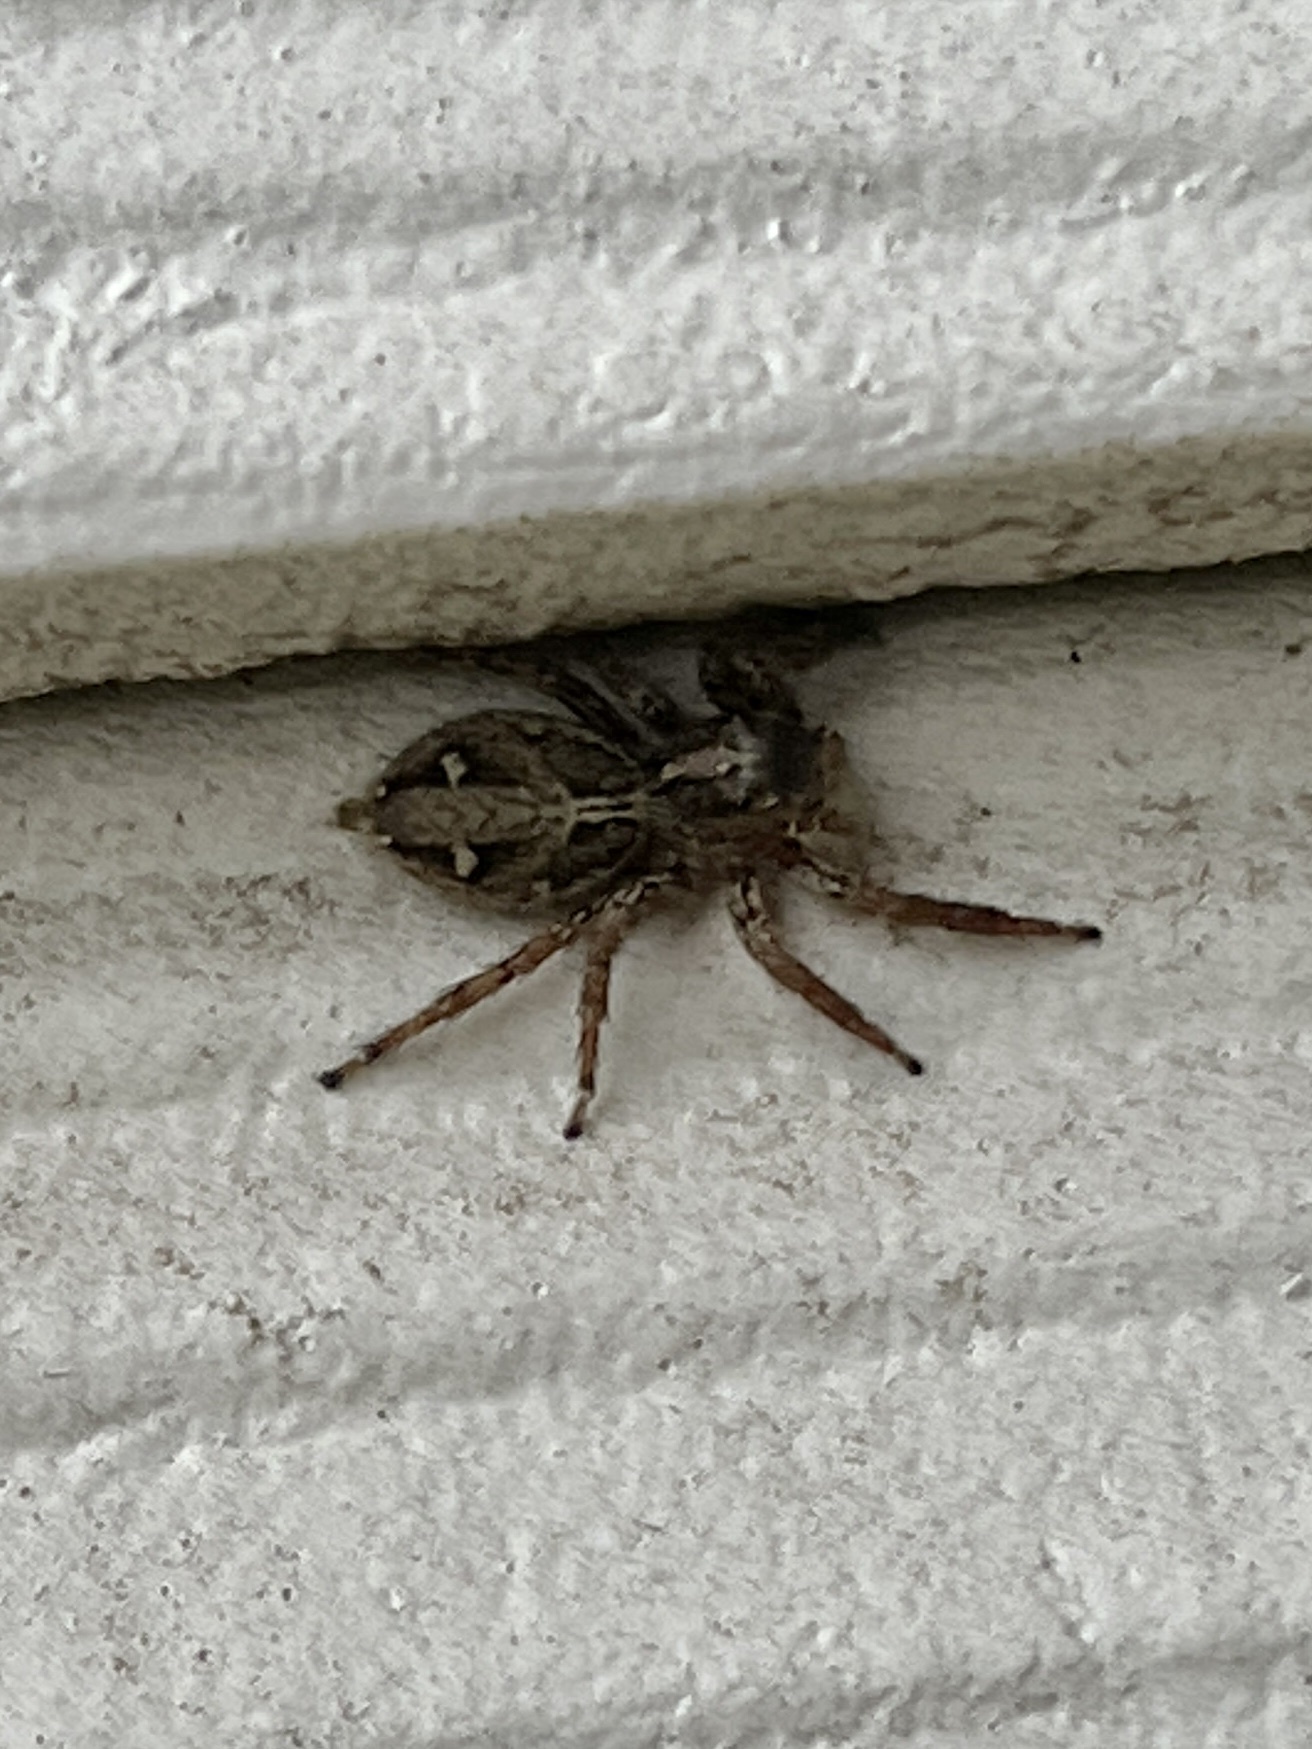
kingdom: Animalia
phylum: Arthropoda
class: Arachnida
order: Araneae
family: Salticidae
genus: Plexippus
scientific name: Plexippus paykulli
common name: Pantropical jumper
